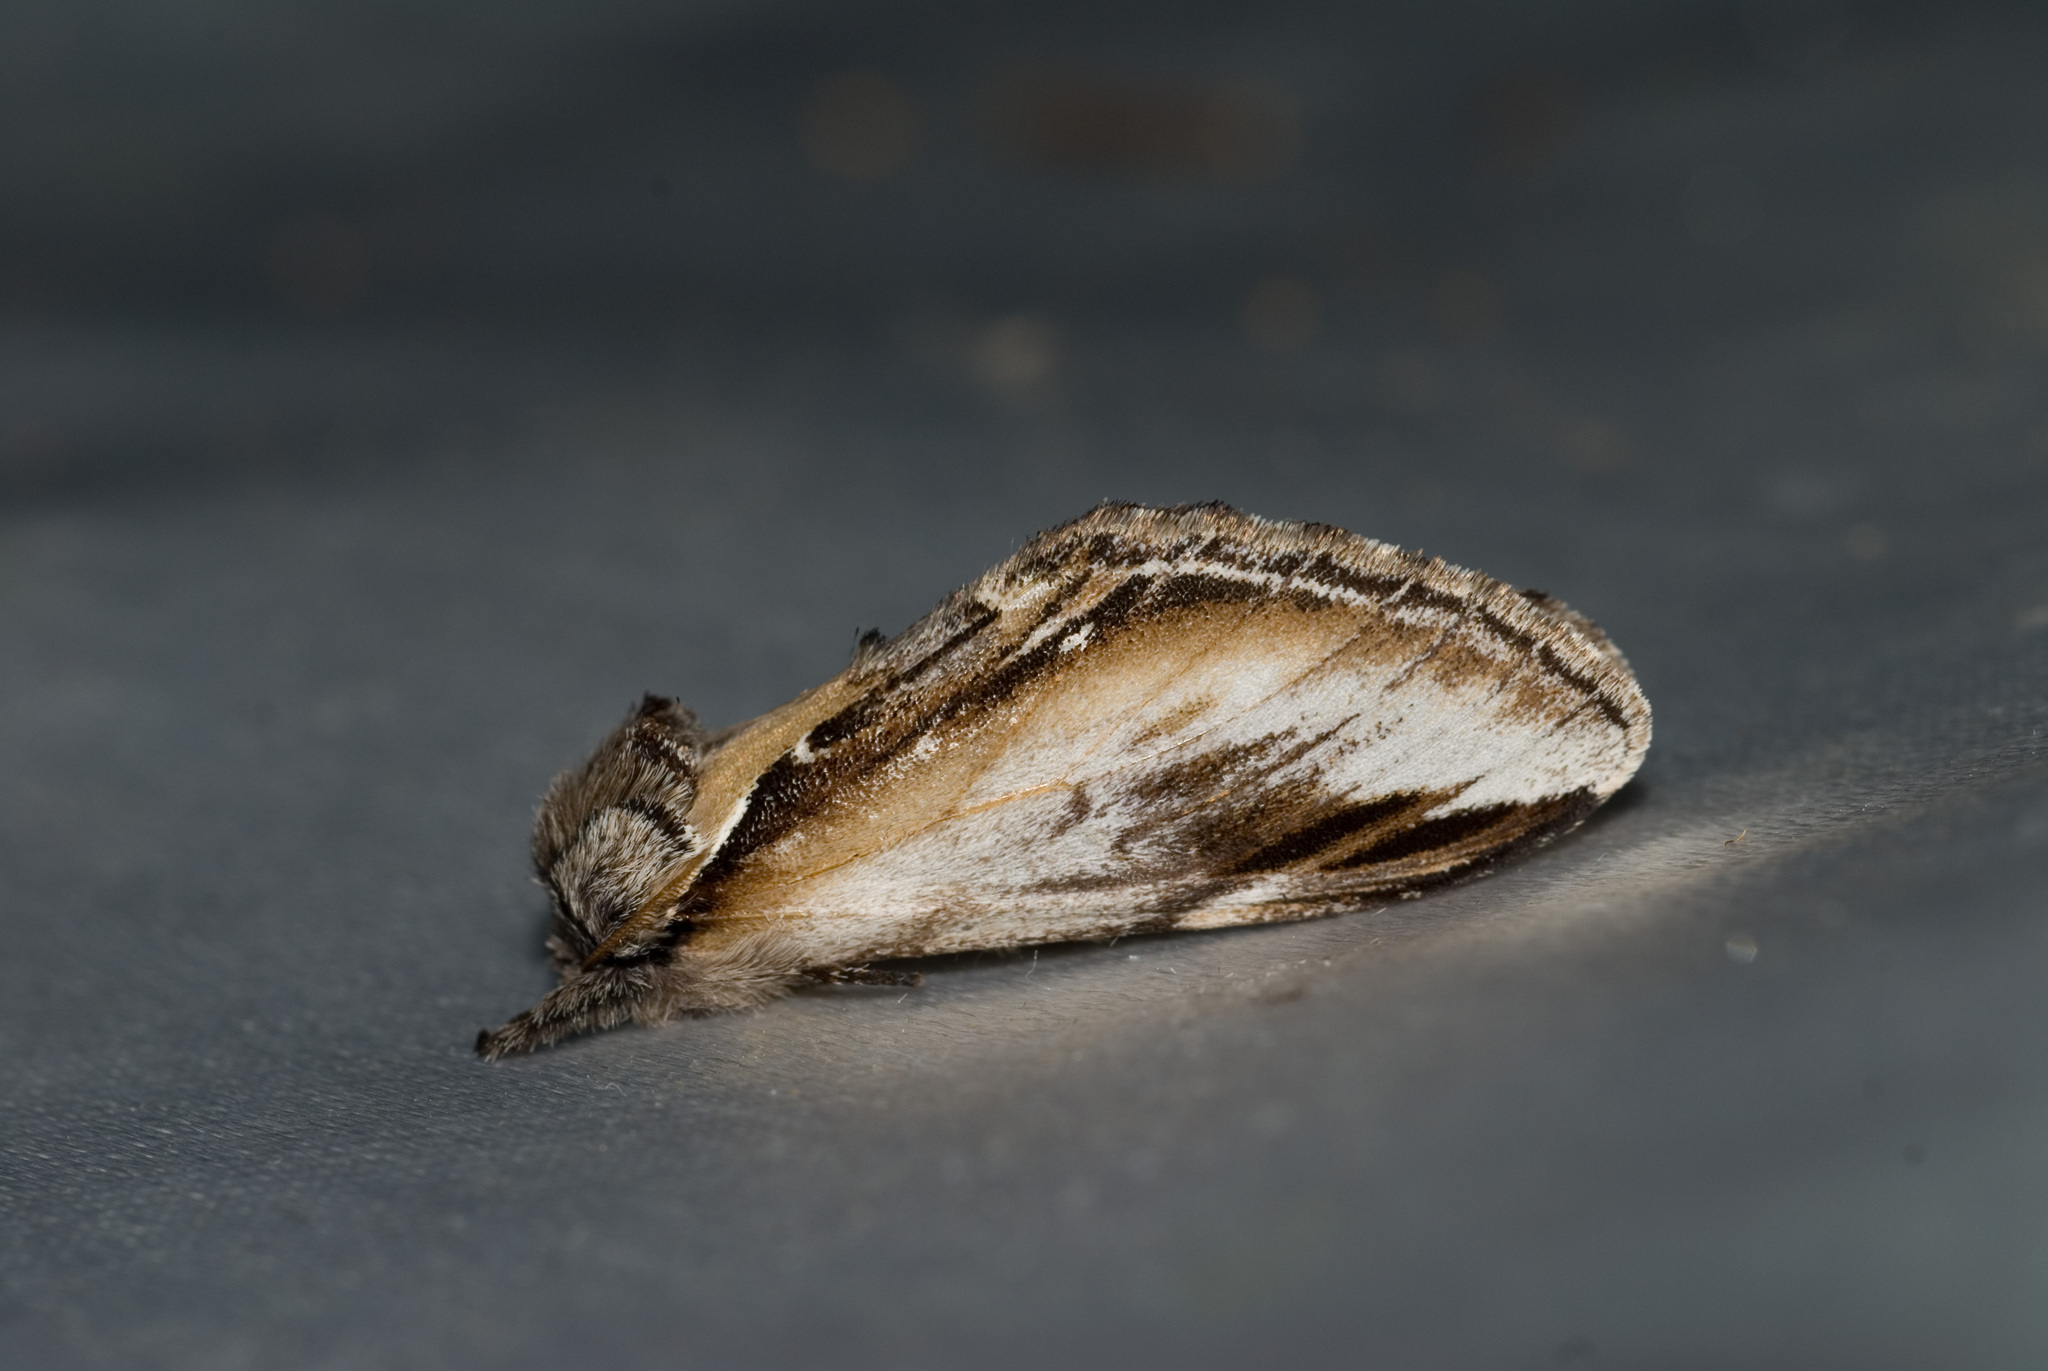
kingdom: Animalia
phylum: Arthropoda
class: Insecta
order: Lepidoptera
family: Notodontidae
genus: Pheosia
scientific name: Pheosia rimosa
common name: Black-rimmed prominent
